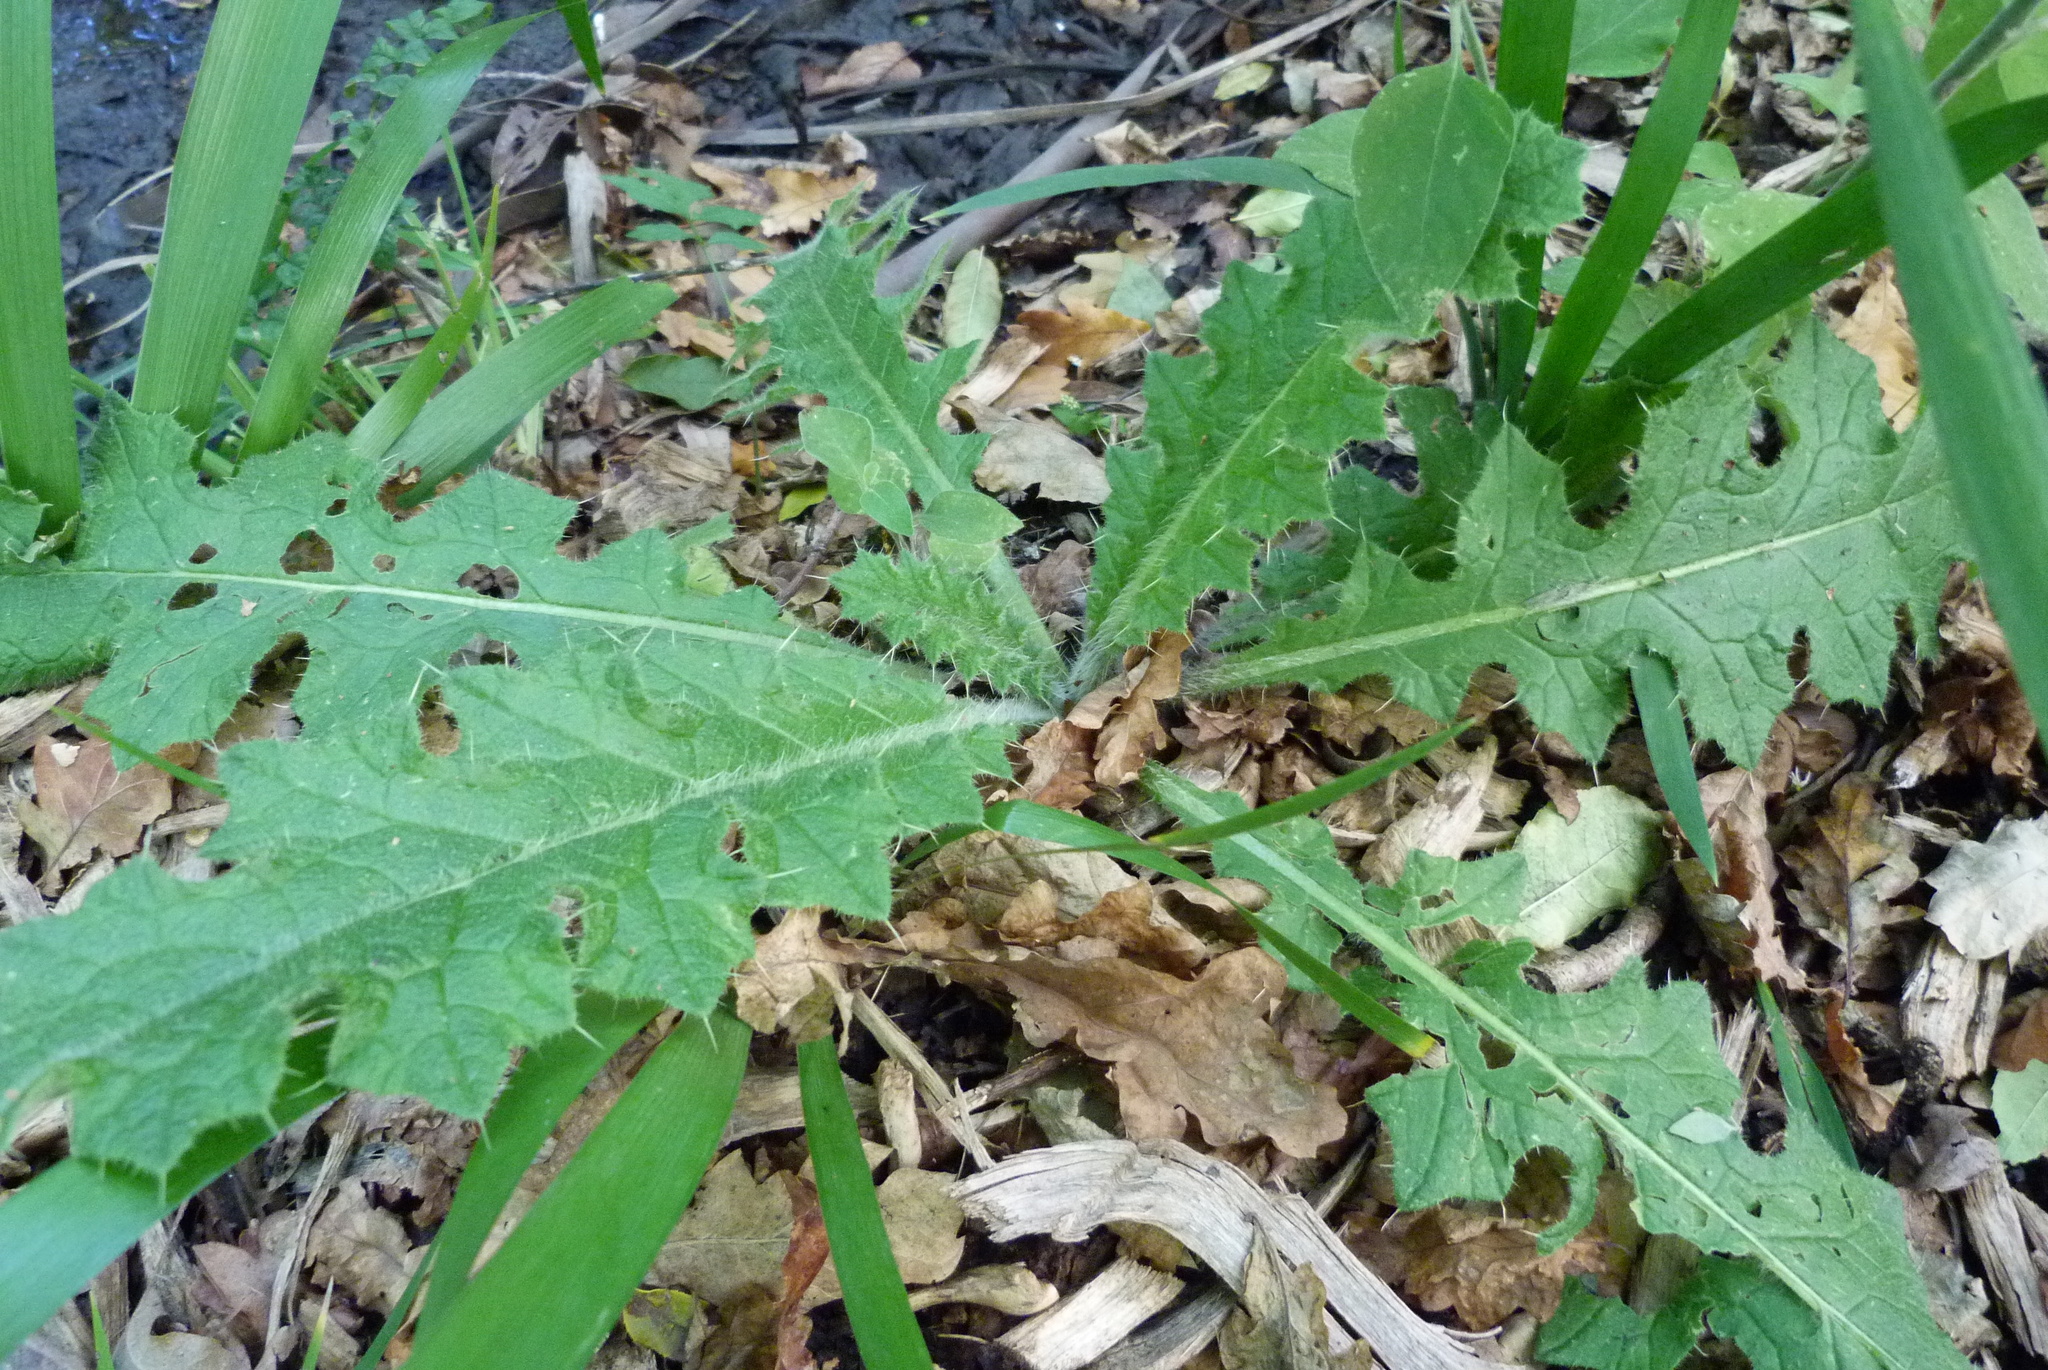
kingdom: Plantae
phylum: Tracheophyta
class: Magnoliopsida
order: Asterales
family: Asteraceae
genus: Cirsium
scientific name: Cirsium vulgare
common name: Bull thistle
